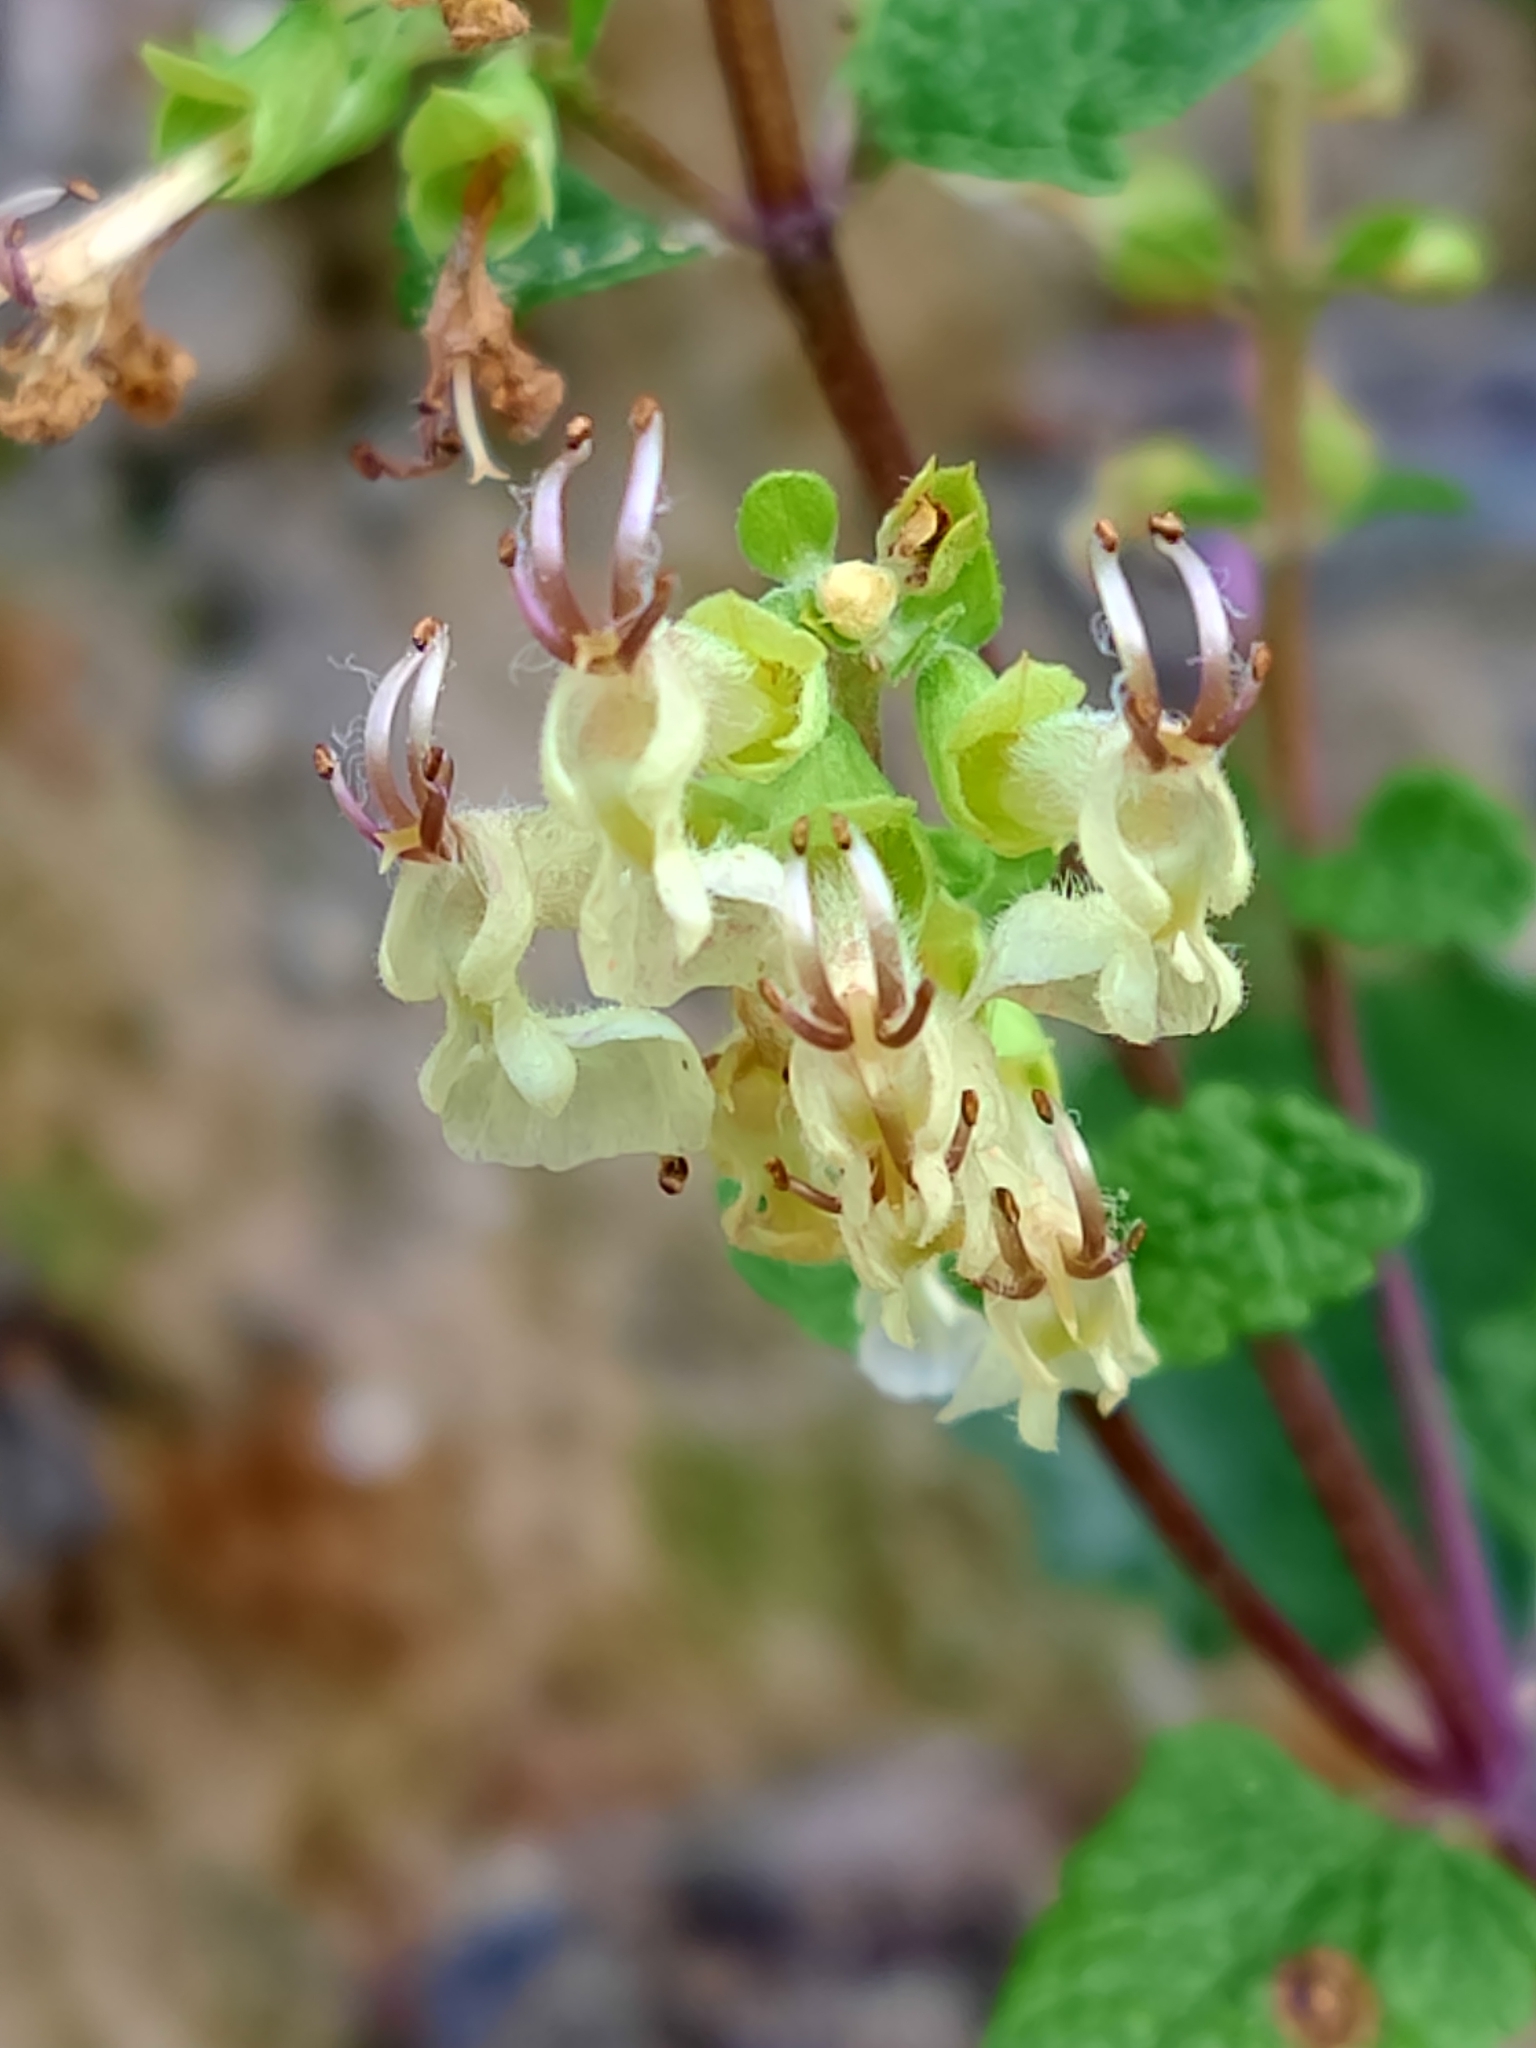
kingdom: Plantae
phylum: Tracheophyta
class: Magnoliopsida
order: Lamiales
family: Lamiaceae
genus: Teucrium
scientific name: Teucrium scorodonia
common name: Woodland germander
